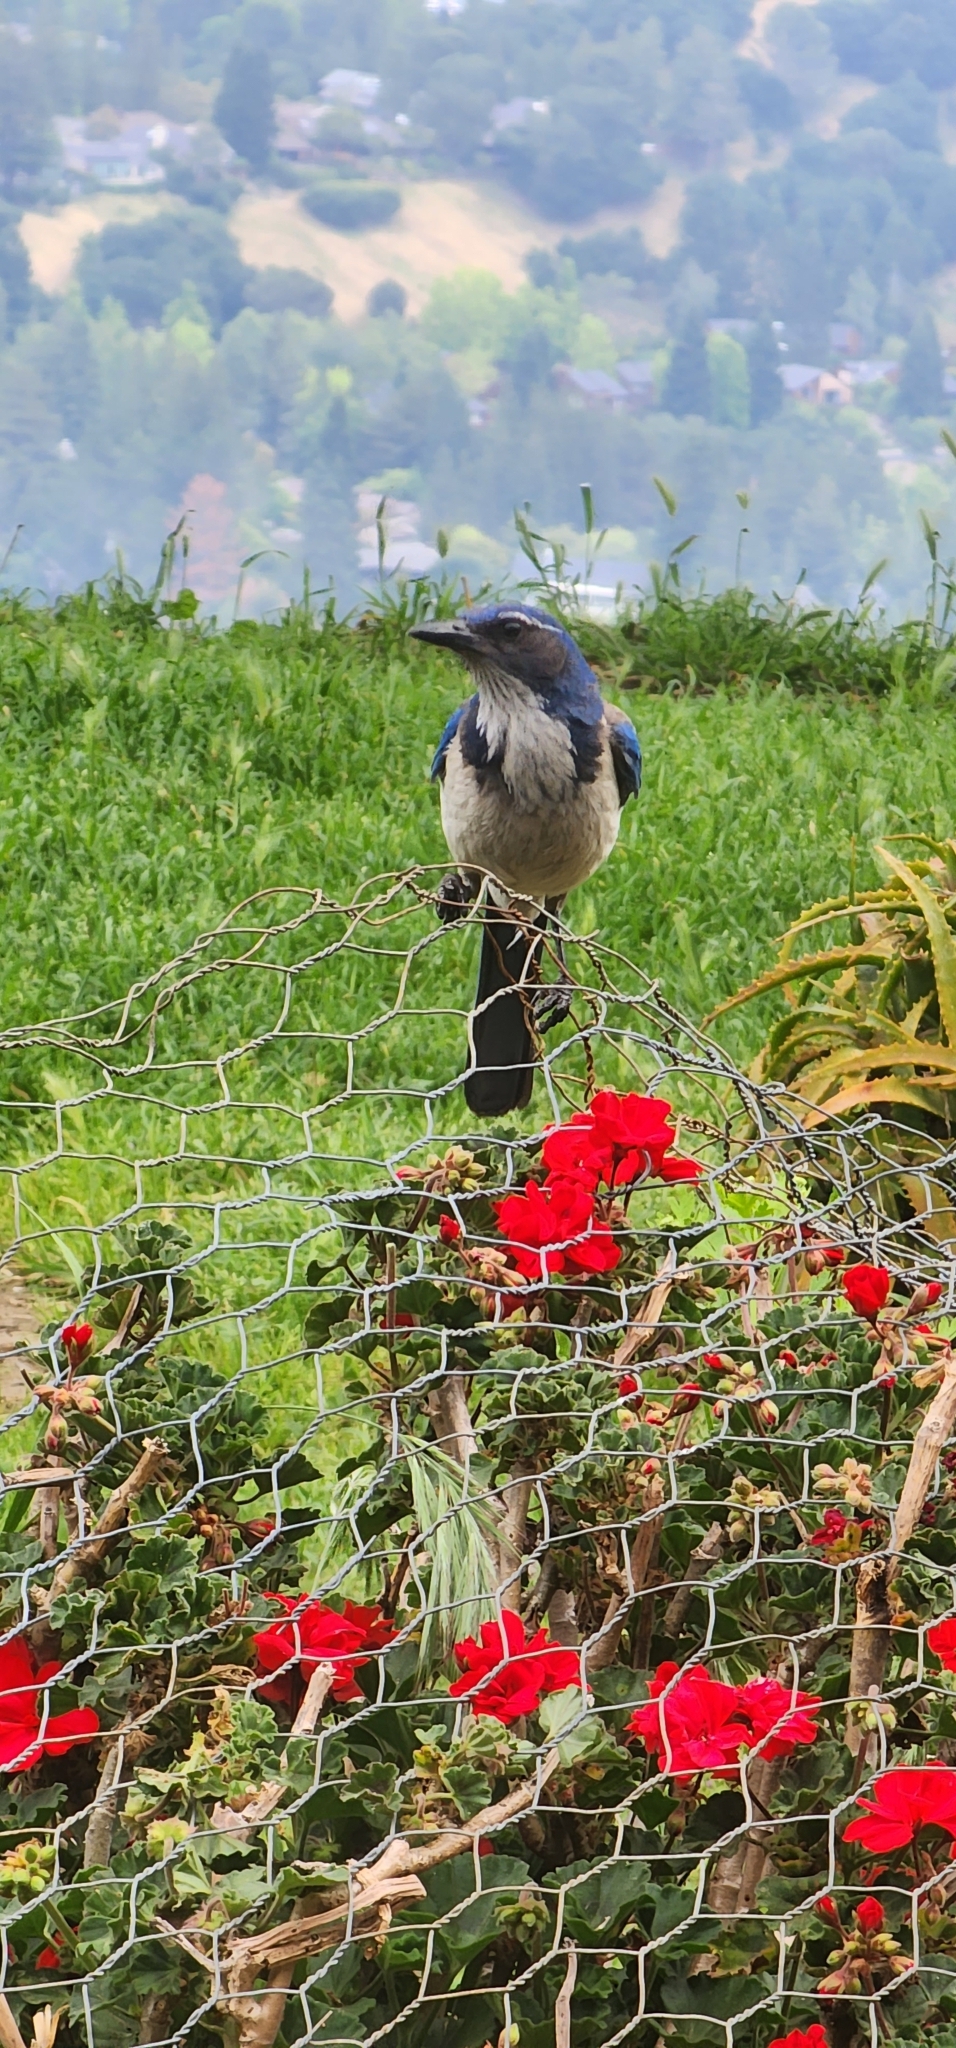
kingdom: Animalia
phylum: Chordata
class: Aves
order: Passeriformes
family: Corvidae
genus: Aphelocoma
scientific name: Aphelocoma californica
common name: California scrub-jay
